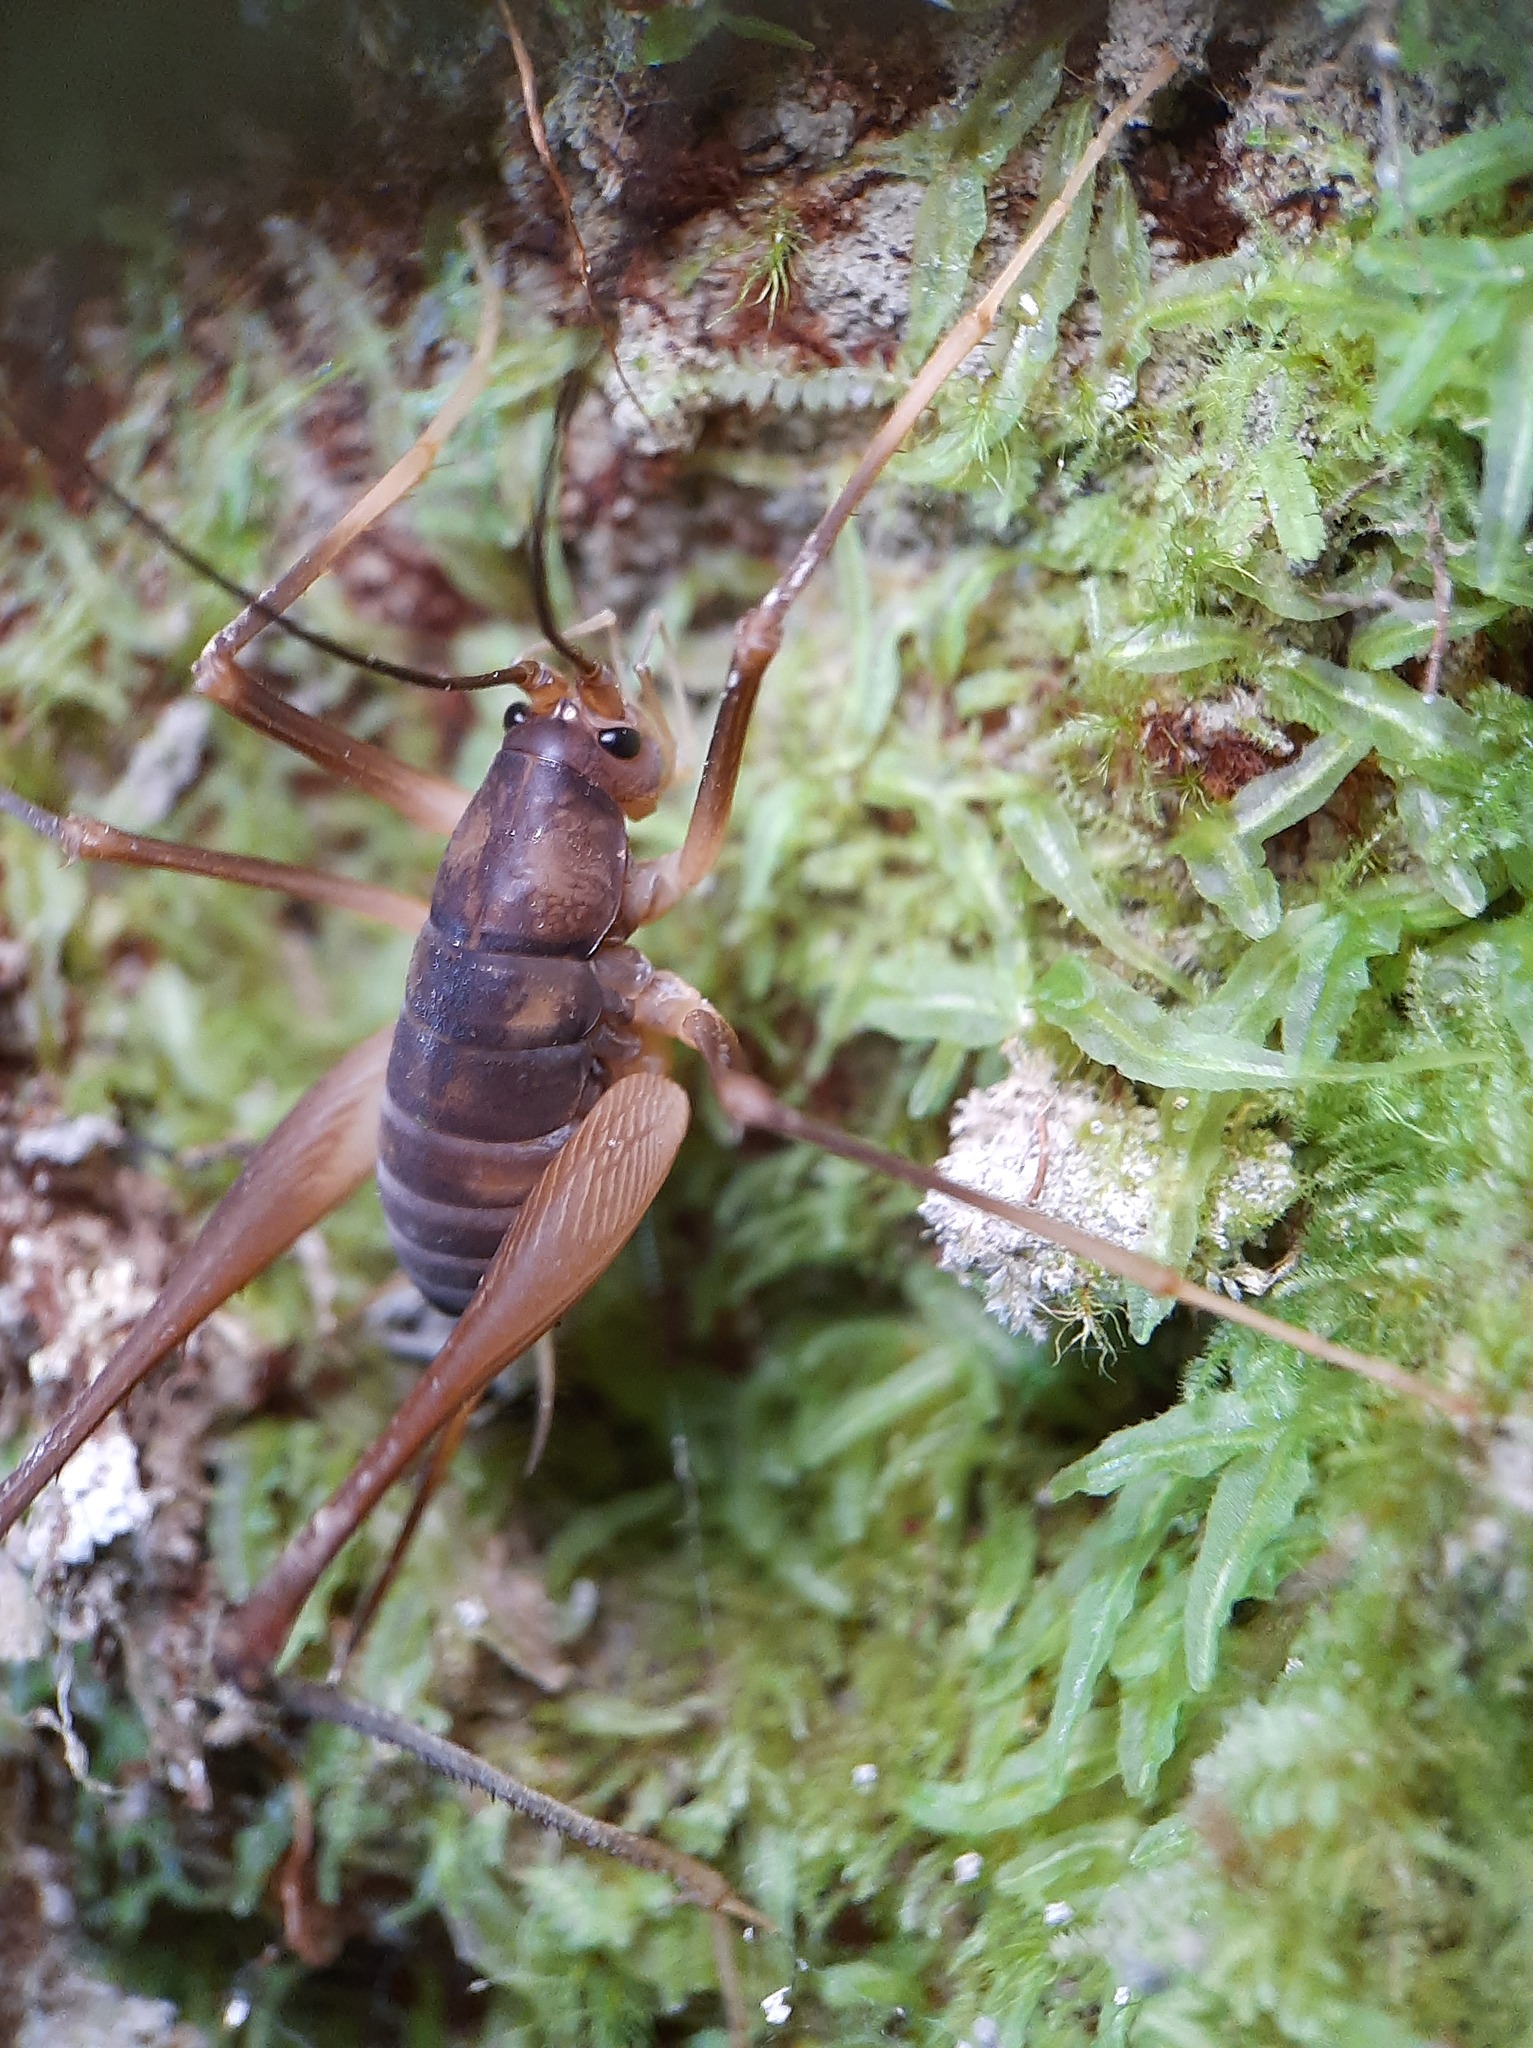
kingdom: Animalia
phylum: Arthropoda
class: Insecta
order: Orthoptera
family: Rhaphidophoridae
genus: Macropathus
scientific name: Macropathus filifer
